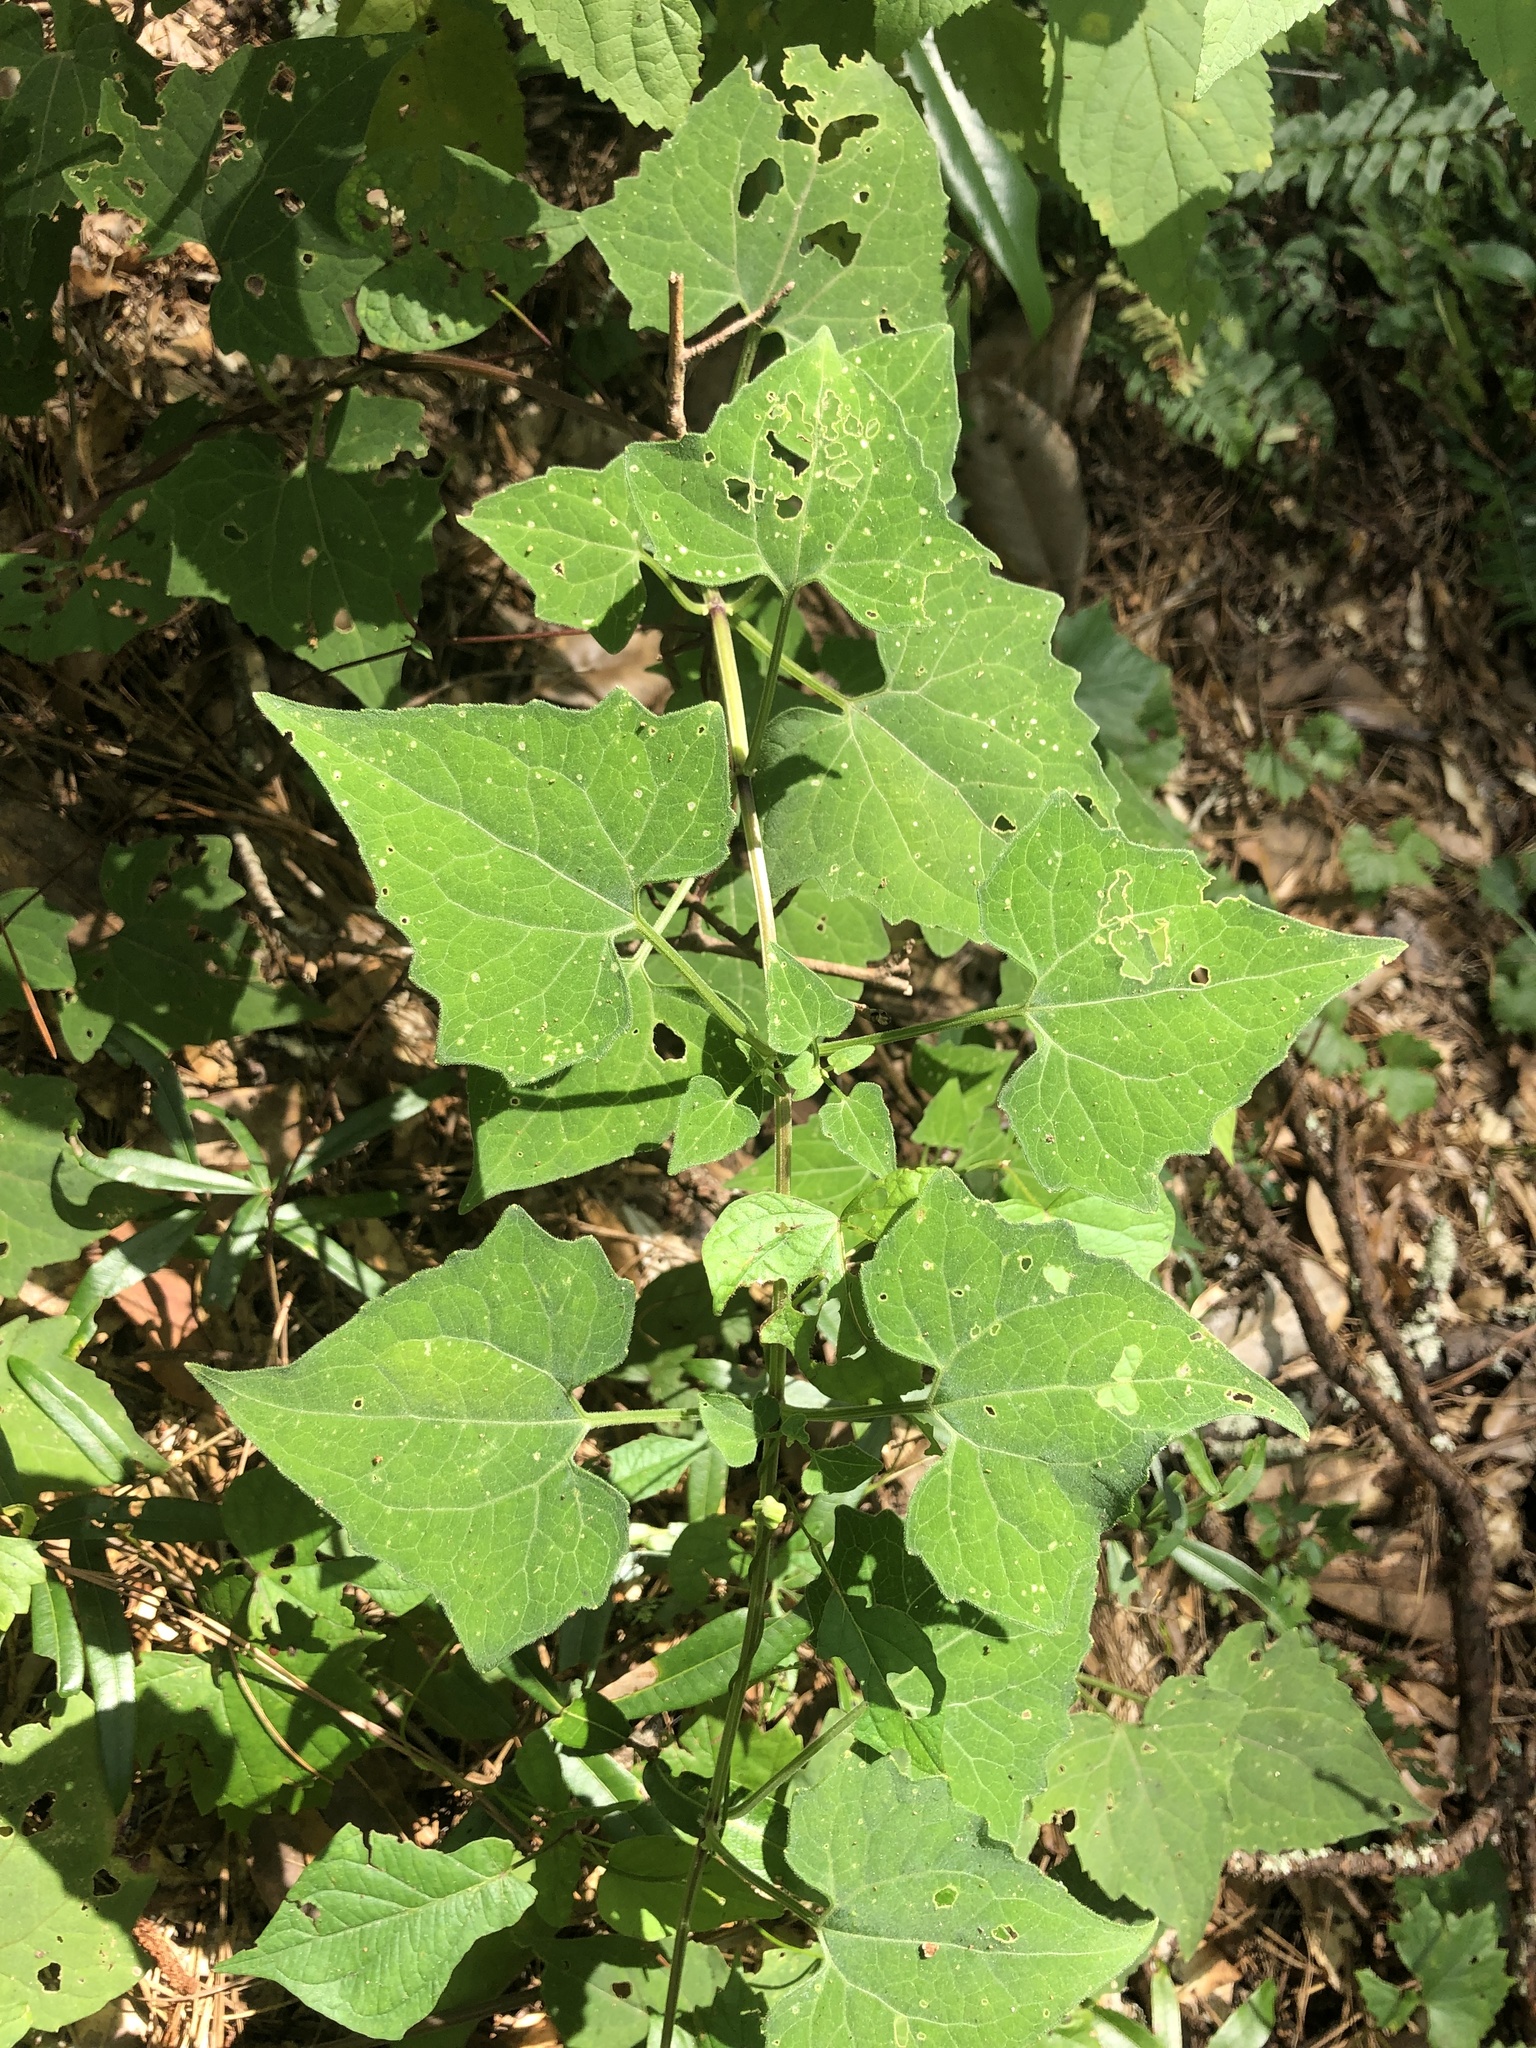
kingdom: Plantae
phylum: Tracheophyta
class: Magnoliopsida
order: Asterales
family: Asteraceae
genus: Mikania
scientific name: Mikania cordifolia
